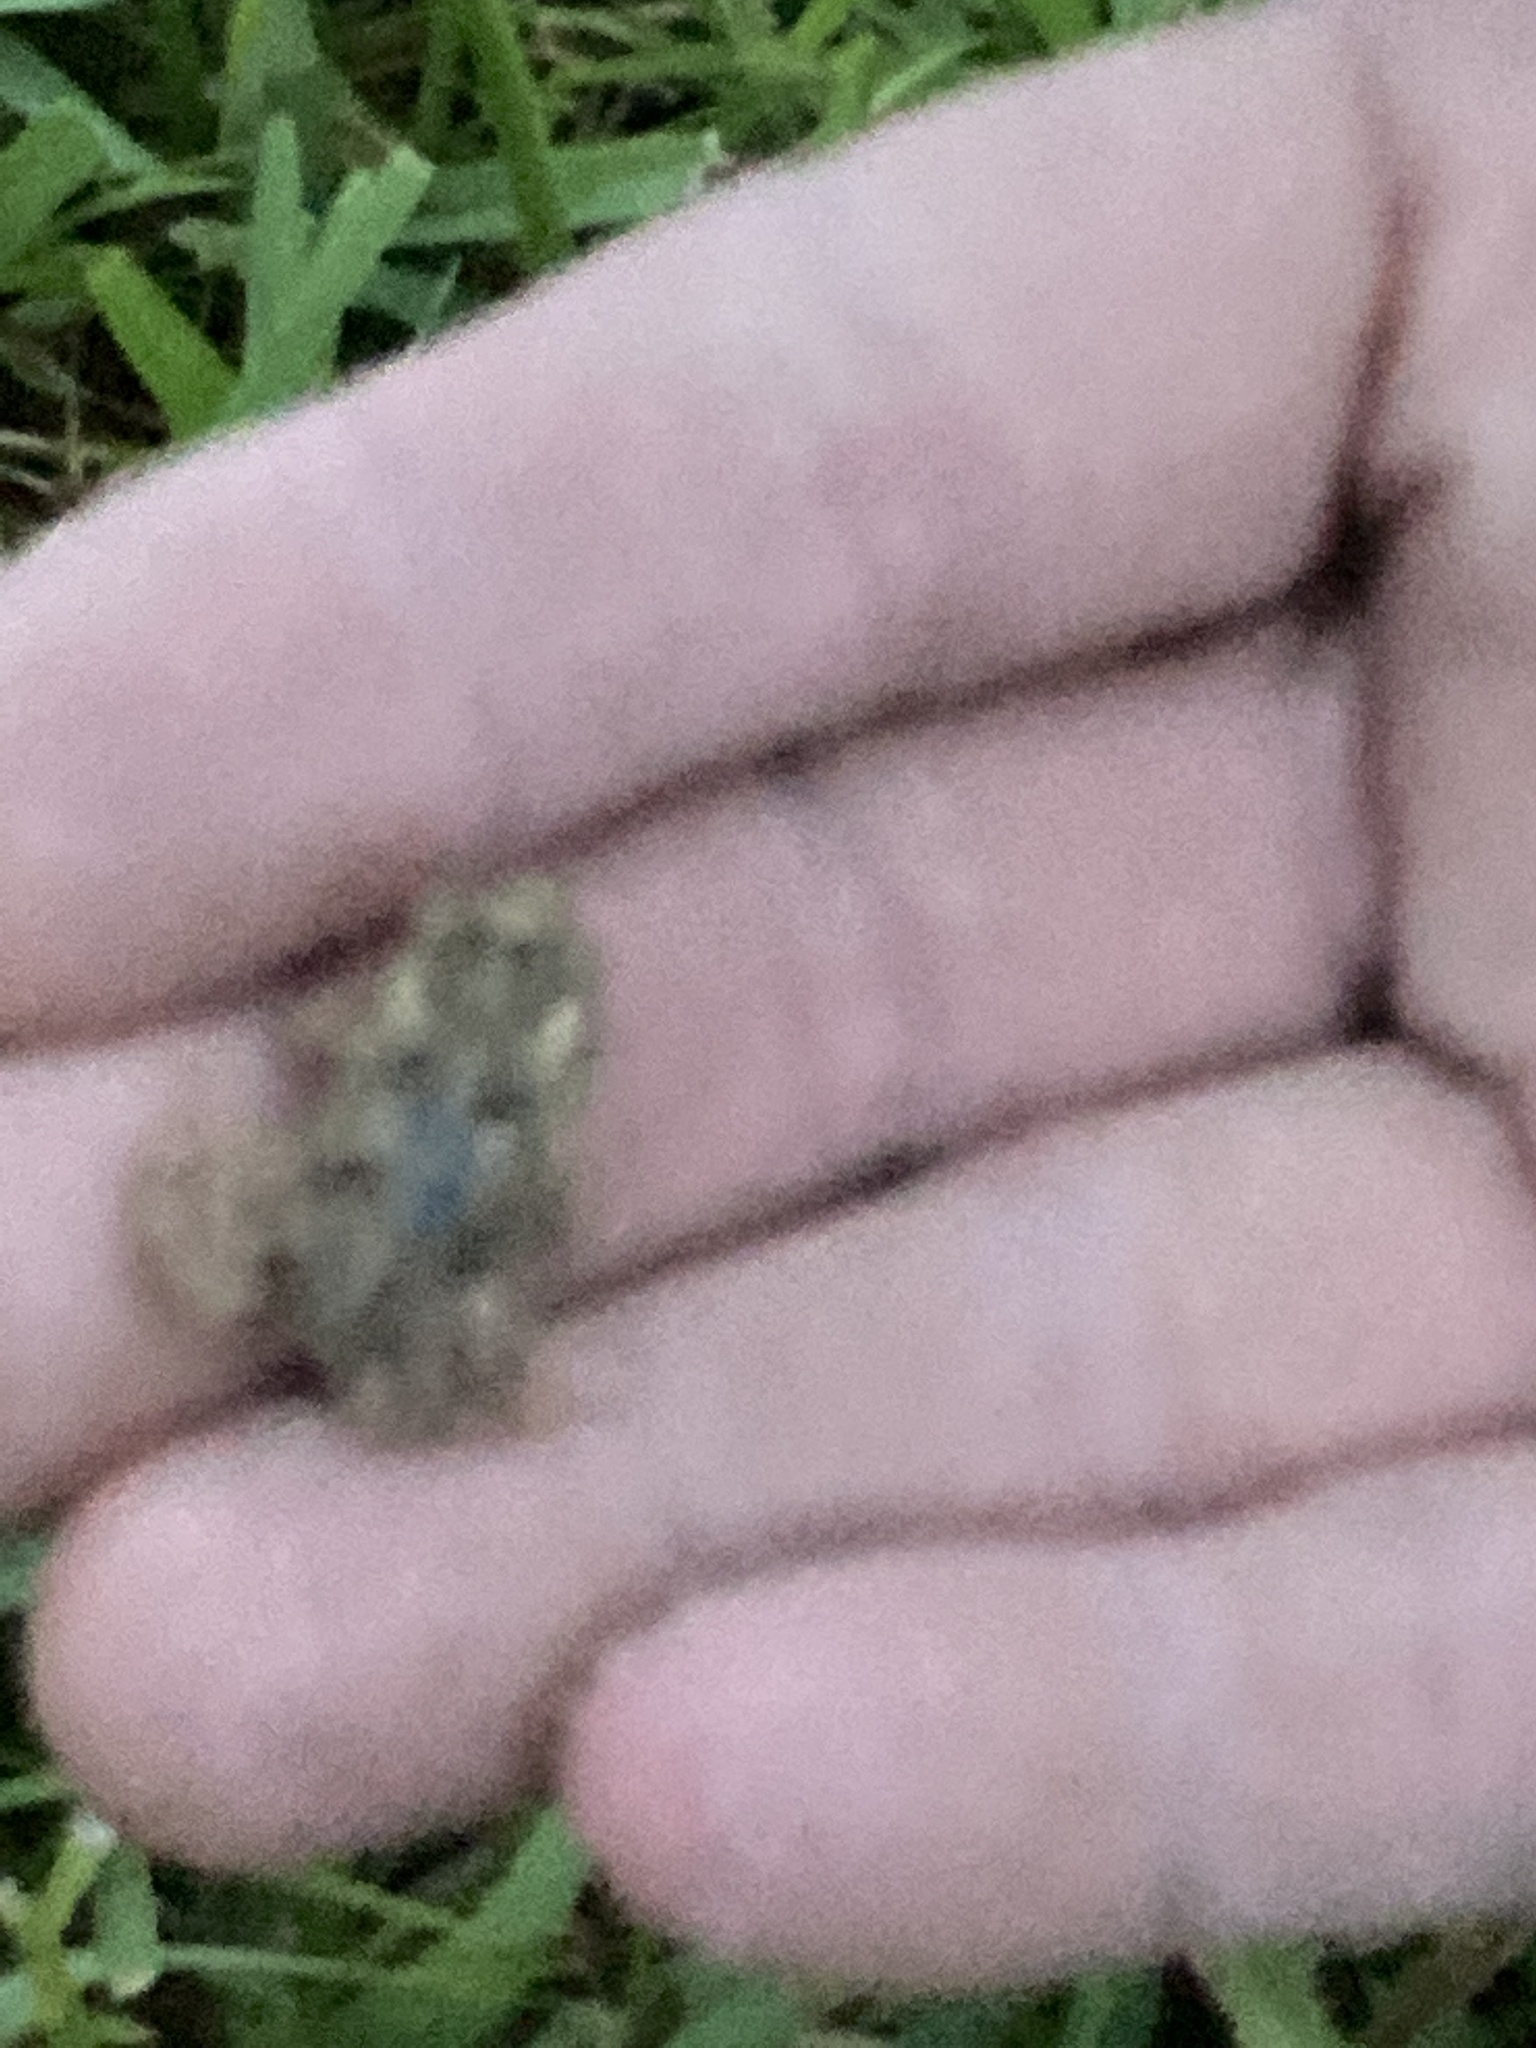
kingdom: Animalia
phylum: Chordata
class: Amphibia
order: Anura
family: Bufonidae
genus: Rhinella
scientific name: Rhinella marina
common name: Cane toad
